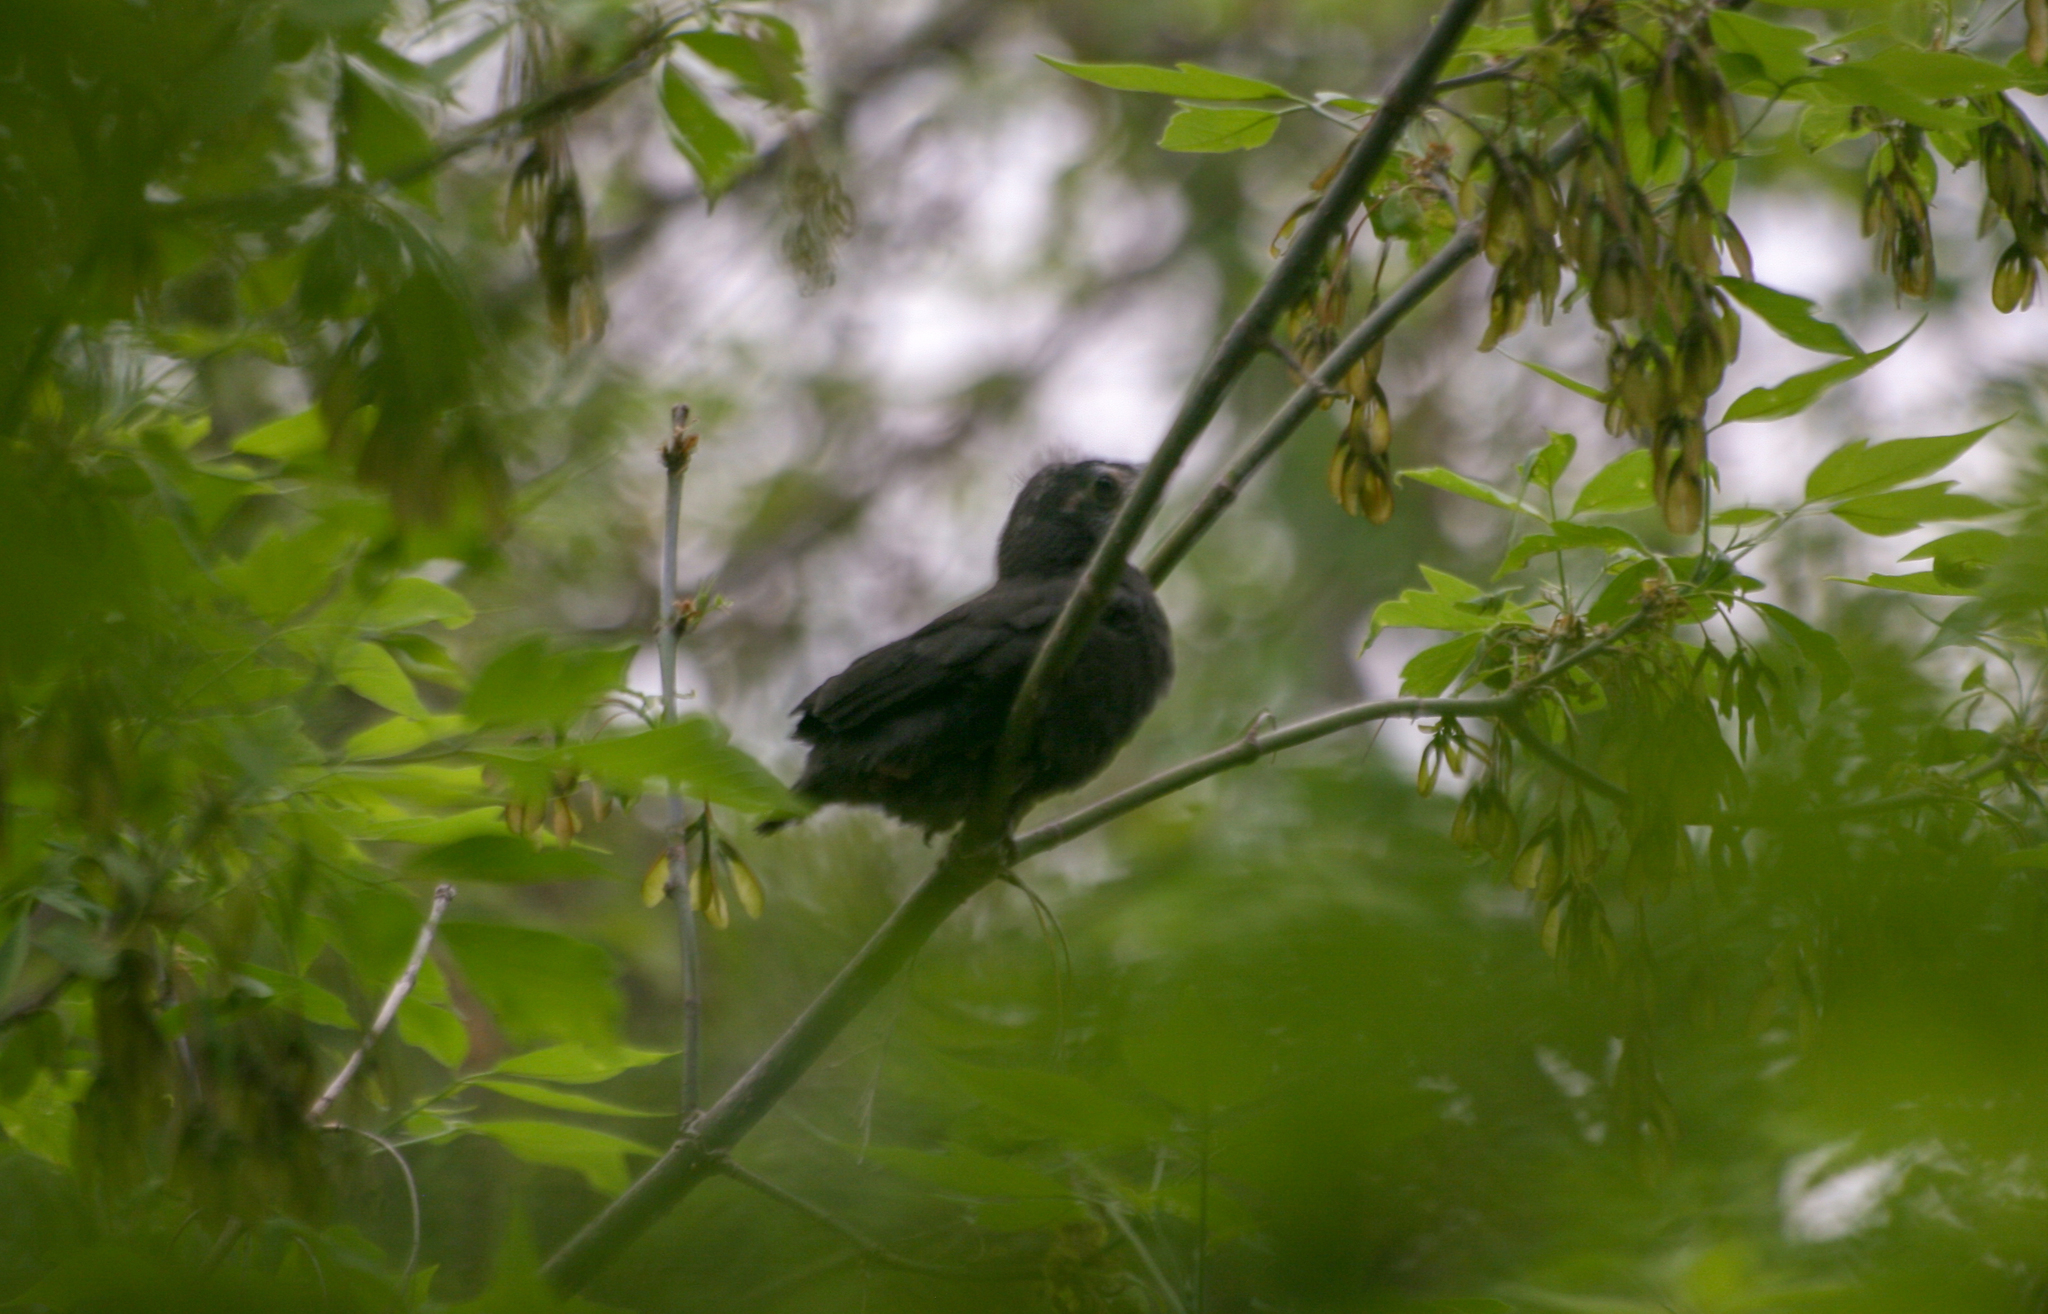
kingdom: Animalia
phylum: Chordata
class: Aves
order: Passeriformes
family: Icteridae
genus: Quiscalus
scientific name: Quiscalus quiscula
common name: Common grackle
